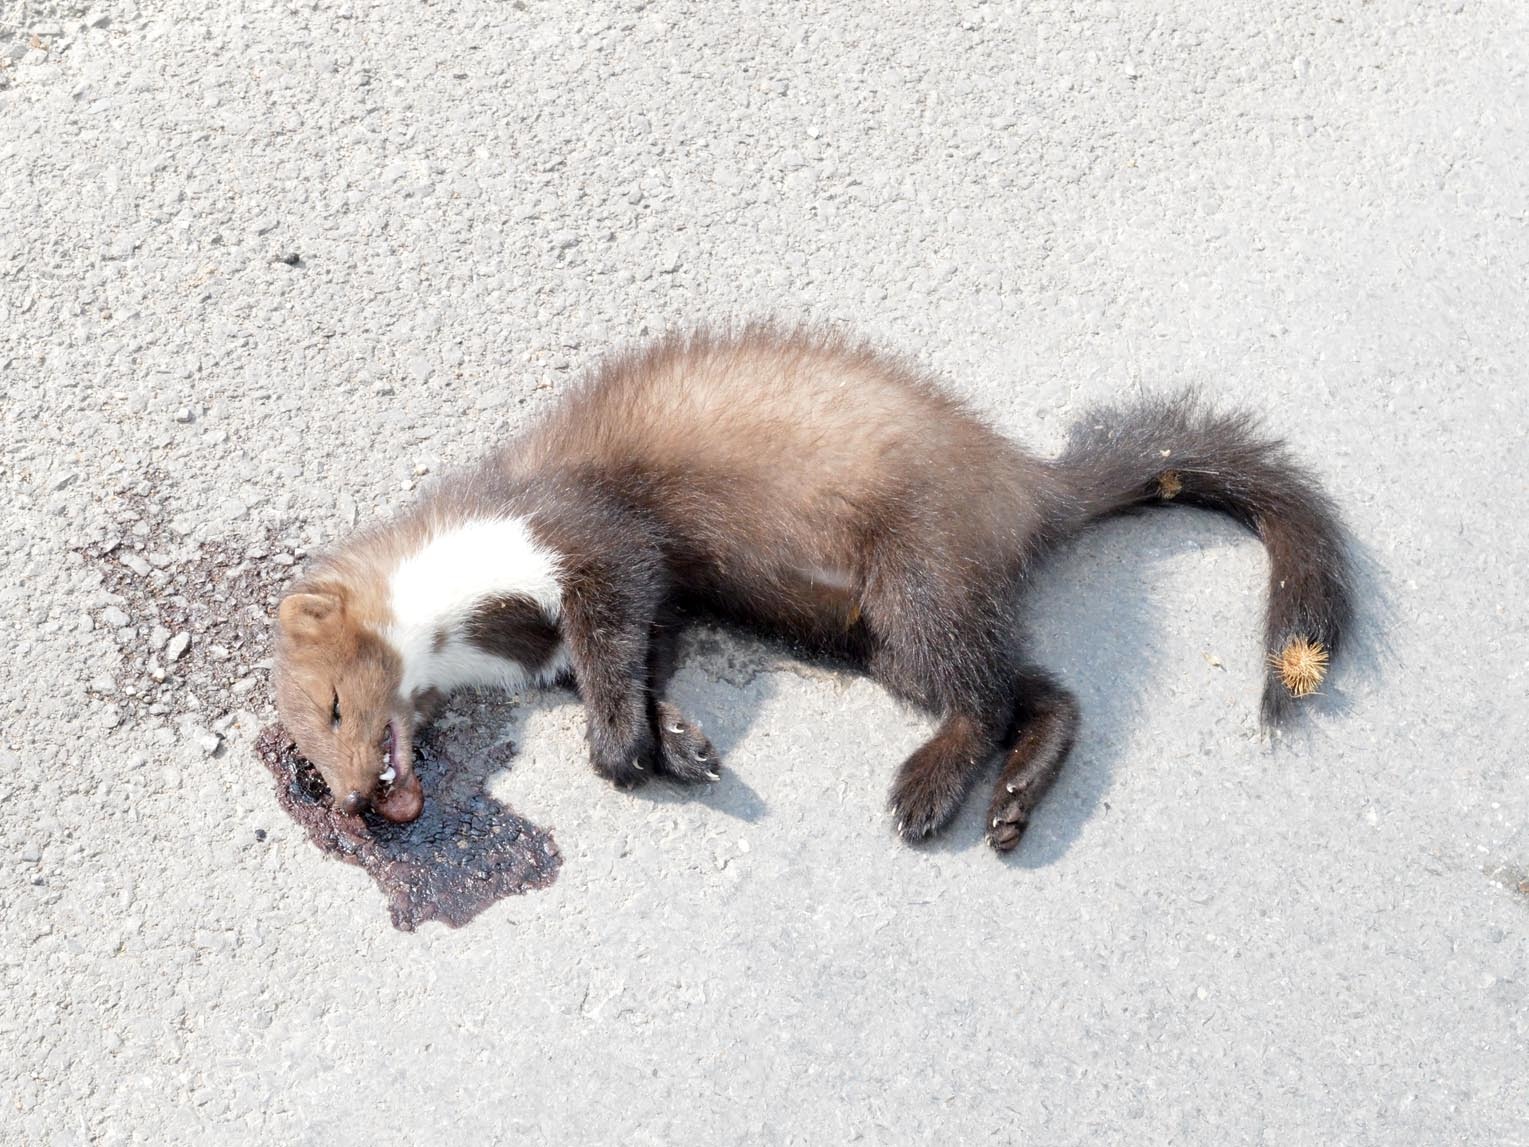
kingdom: Animalia
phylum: Chordata
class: Mammalia
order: Carnivora
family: Mustelidae
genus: Martes
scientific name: Martes foina
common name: Beech marten
